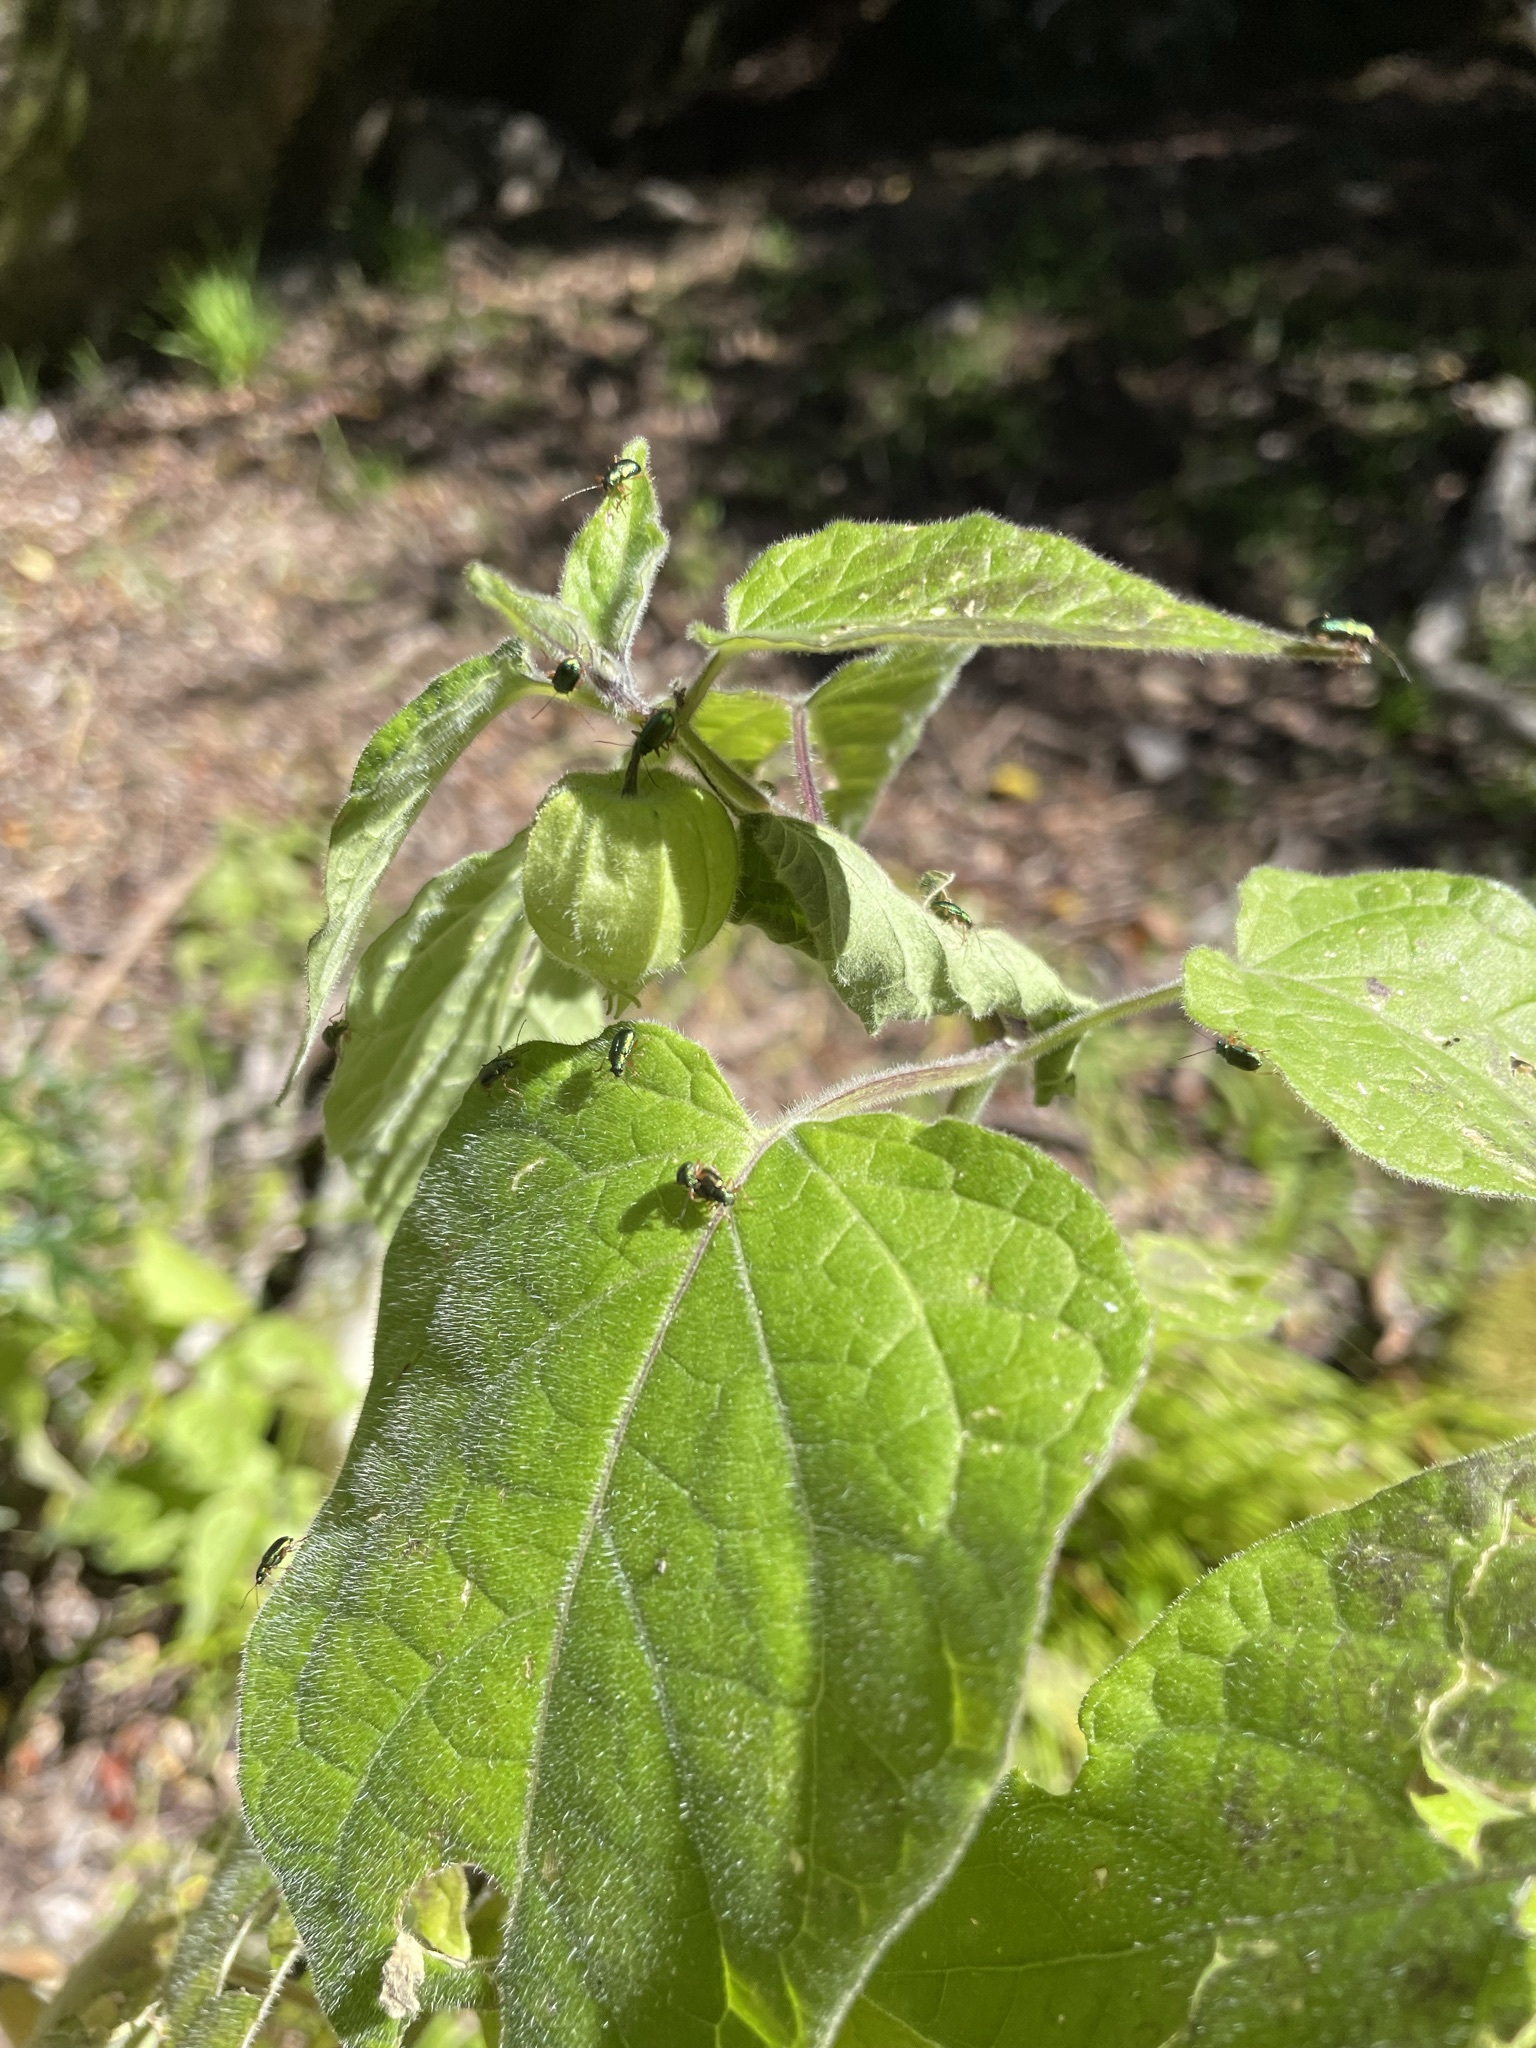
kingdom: Plantae
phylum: Tracheophyta
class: Magnoliopsida
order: Solanales
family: Solanaceae
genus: Physalis
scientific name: Physalis peruviana
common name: Cape-gooseberry
